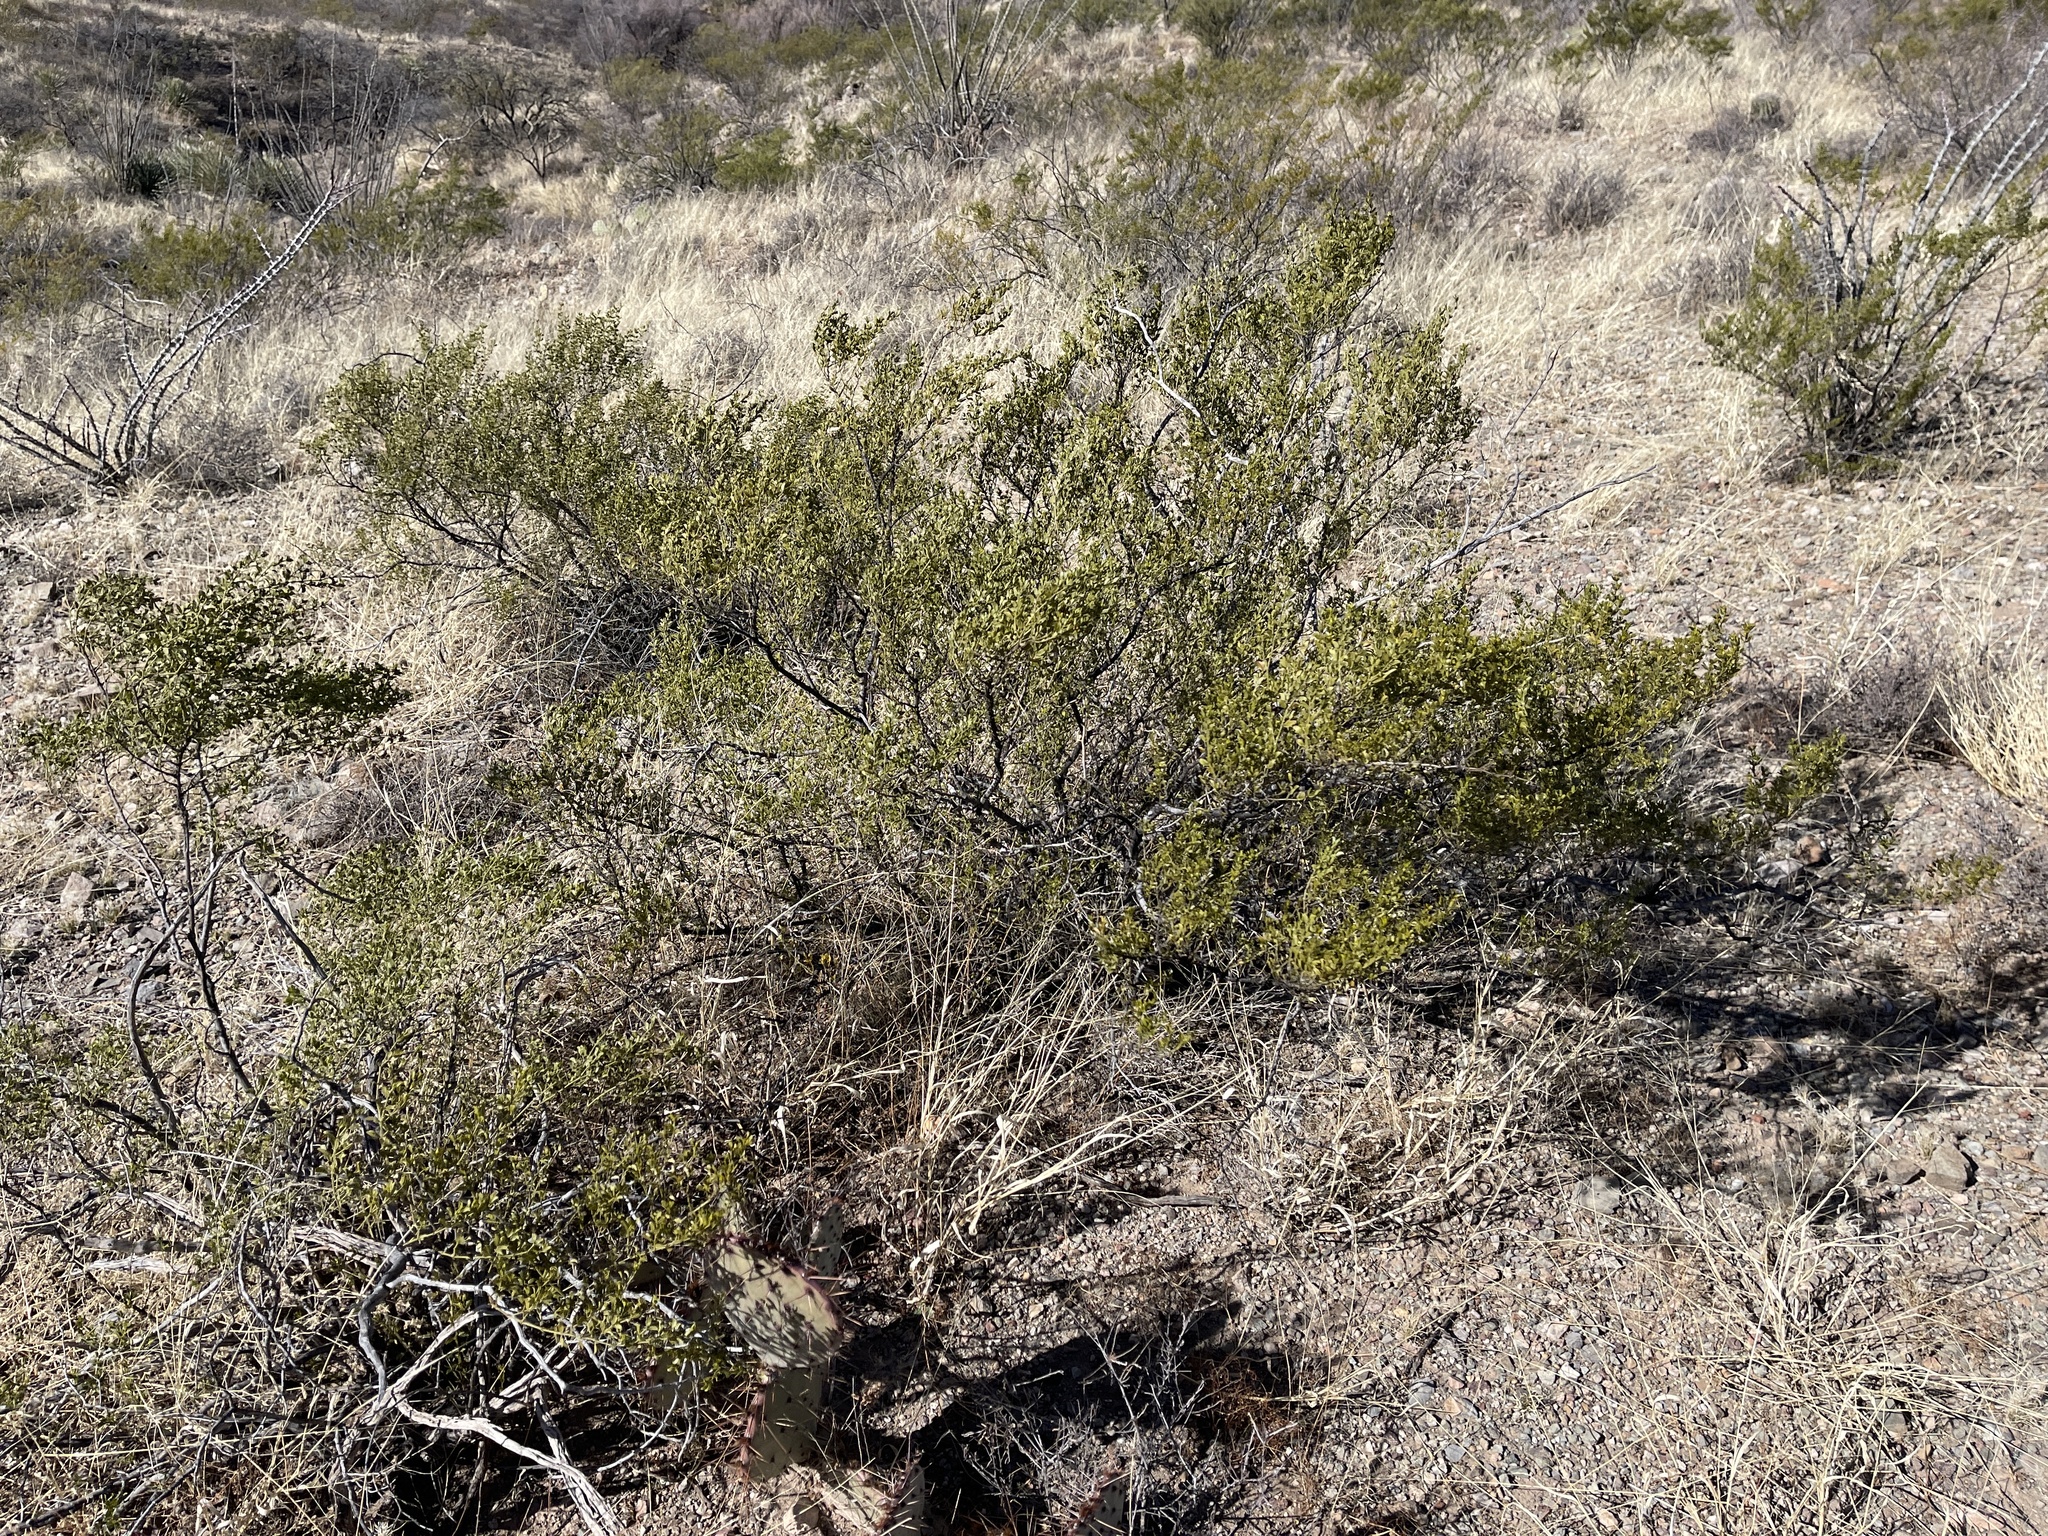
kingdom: Plantae
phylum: Tracheophyta
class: Magnoliopsida
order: Zygophyllales
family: Zygophyllaceae
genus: Larrea
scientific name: Larrea tridentata
